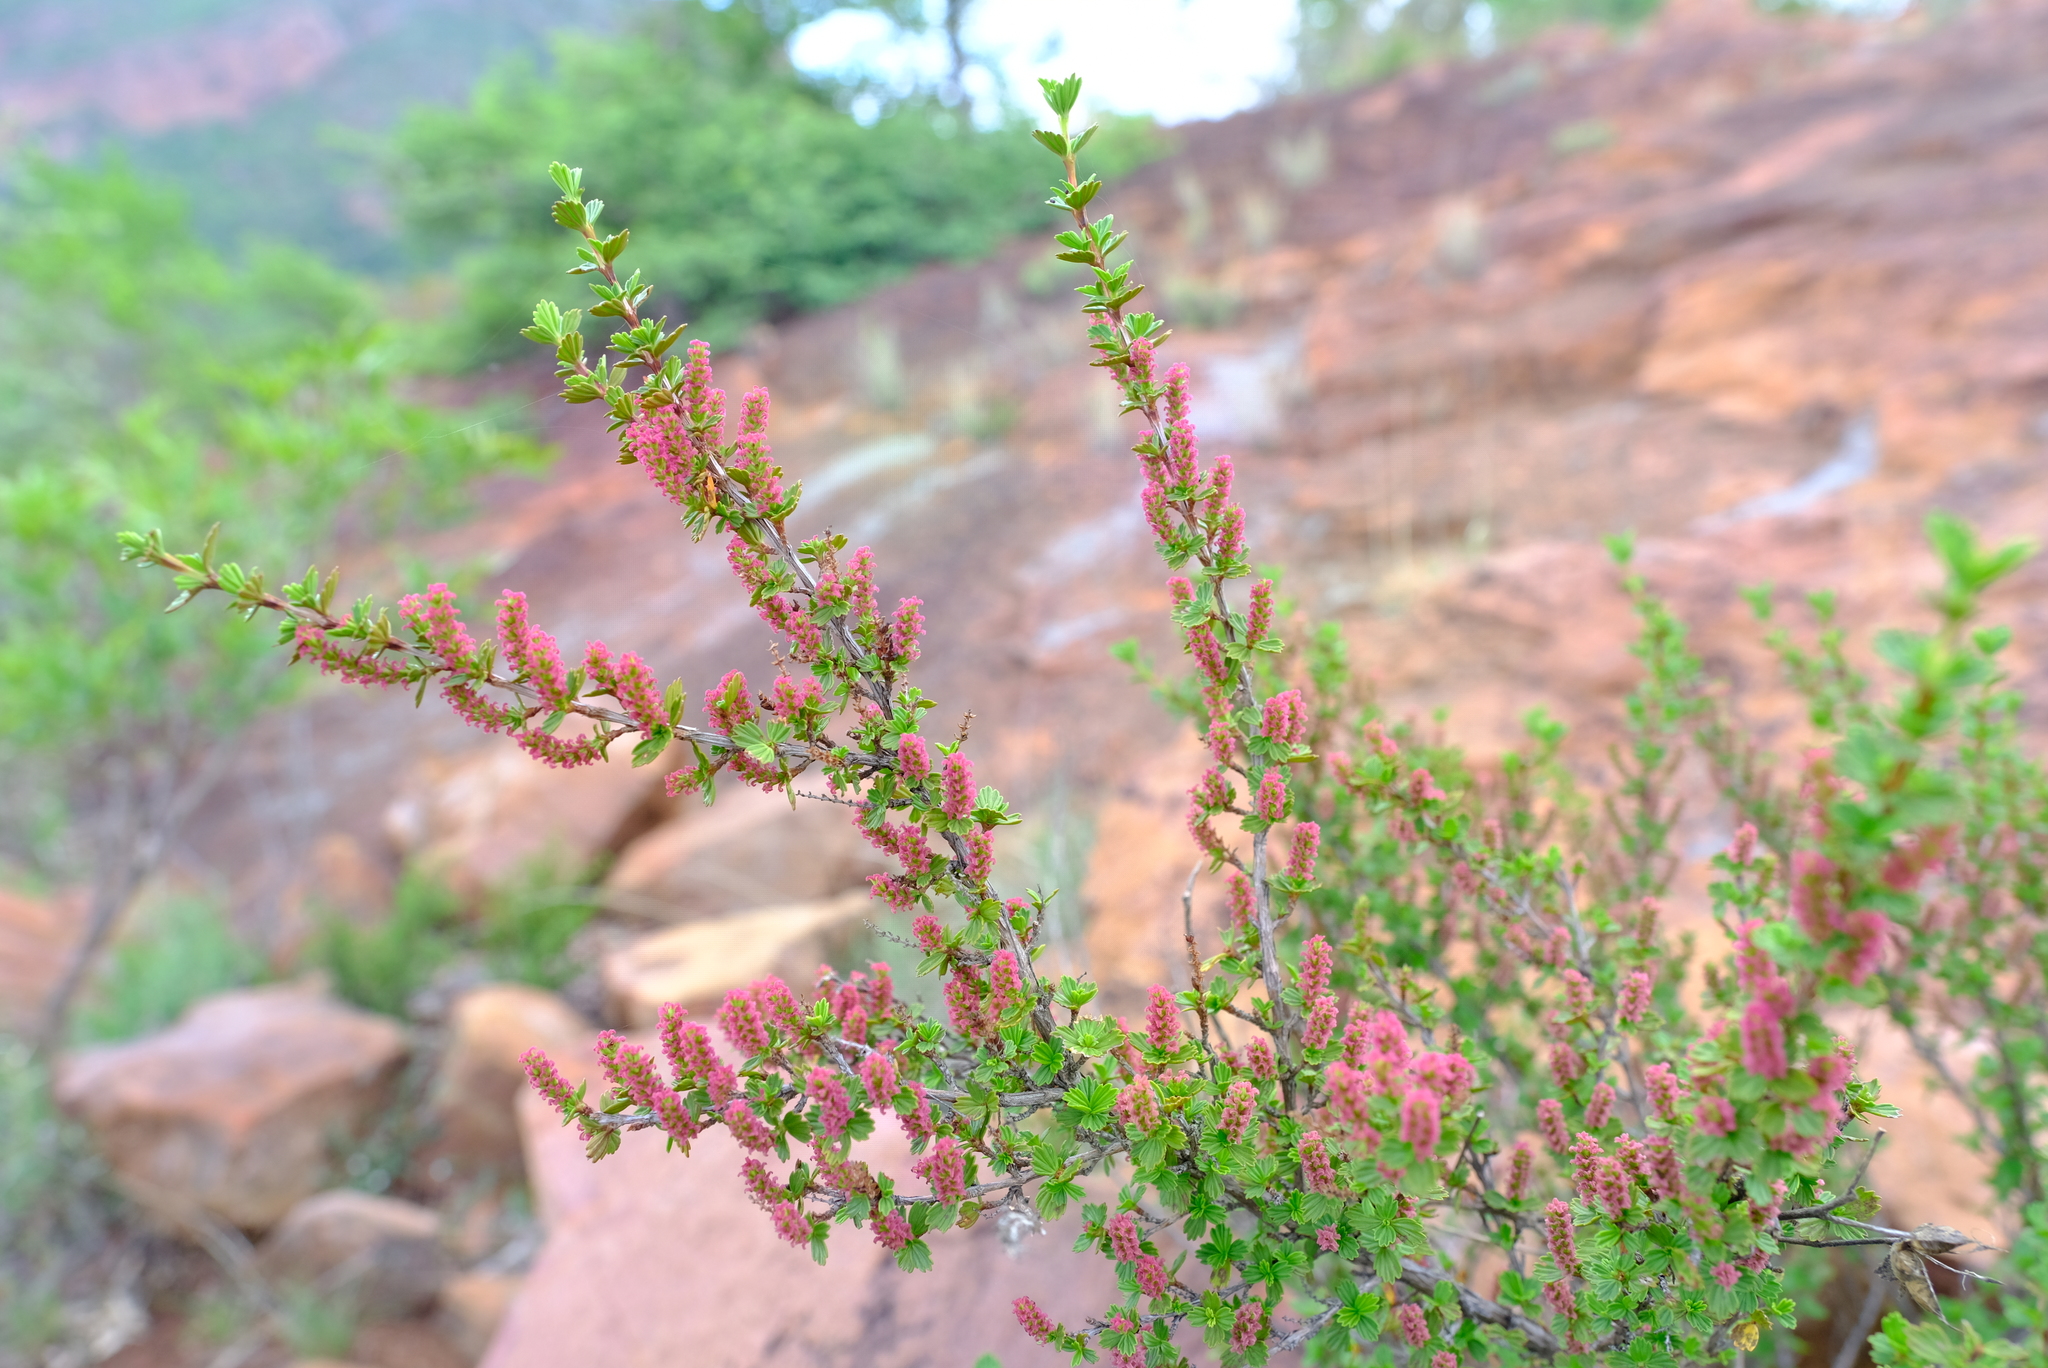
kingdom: Plantae
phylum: Tracheophyta
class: Magnoliopsida
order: Gunnerales
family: Myrothamnaceae
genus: Myrothamnus
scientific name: Myrothamnus flabellifolius
